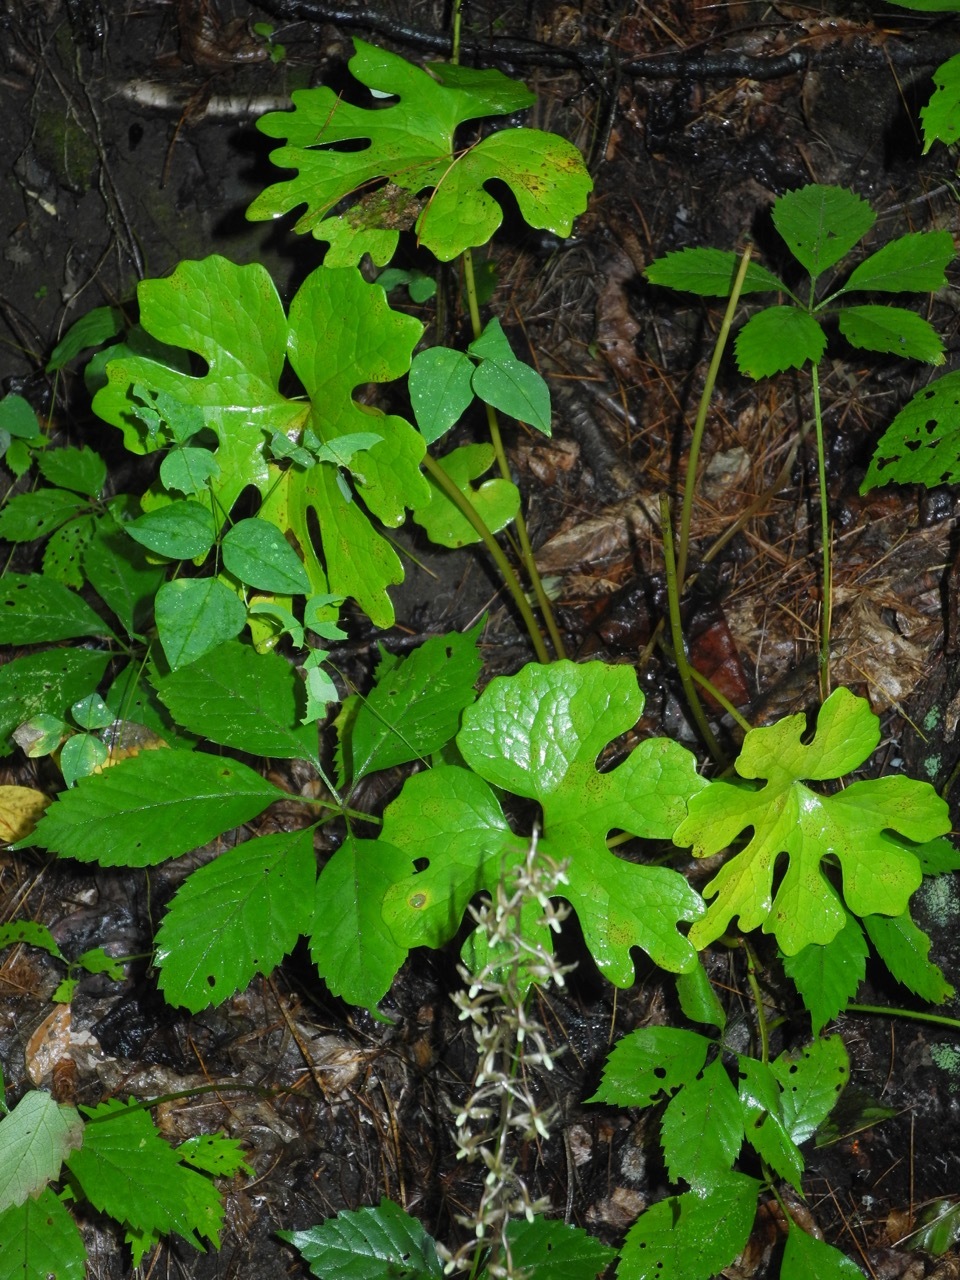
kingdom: Plantae
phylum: Tracheophyta
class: Magnoliopsida
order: Ranunculales
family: Papaveraceae
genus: Sanguinaria
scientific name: Sanguinaria canadensis
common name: Bloodroot
